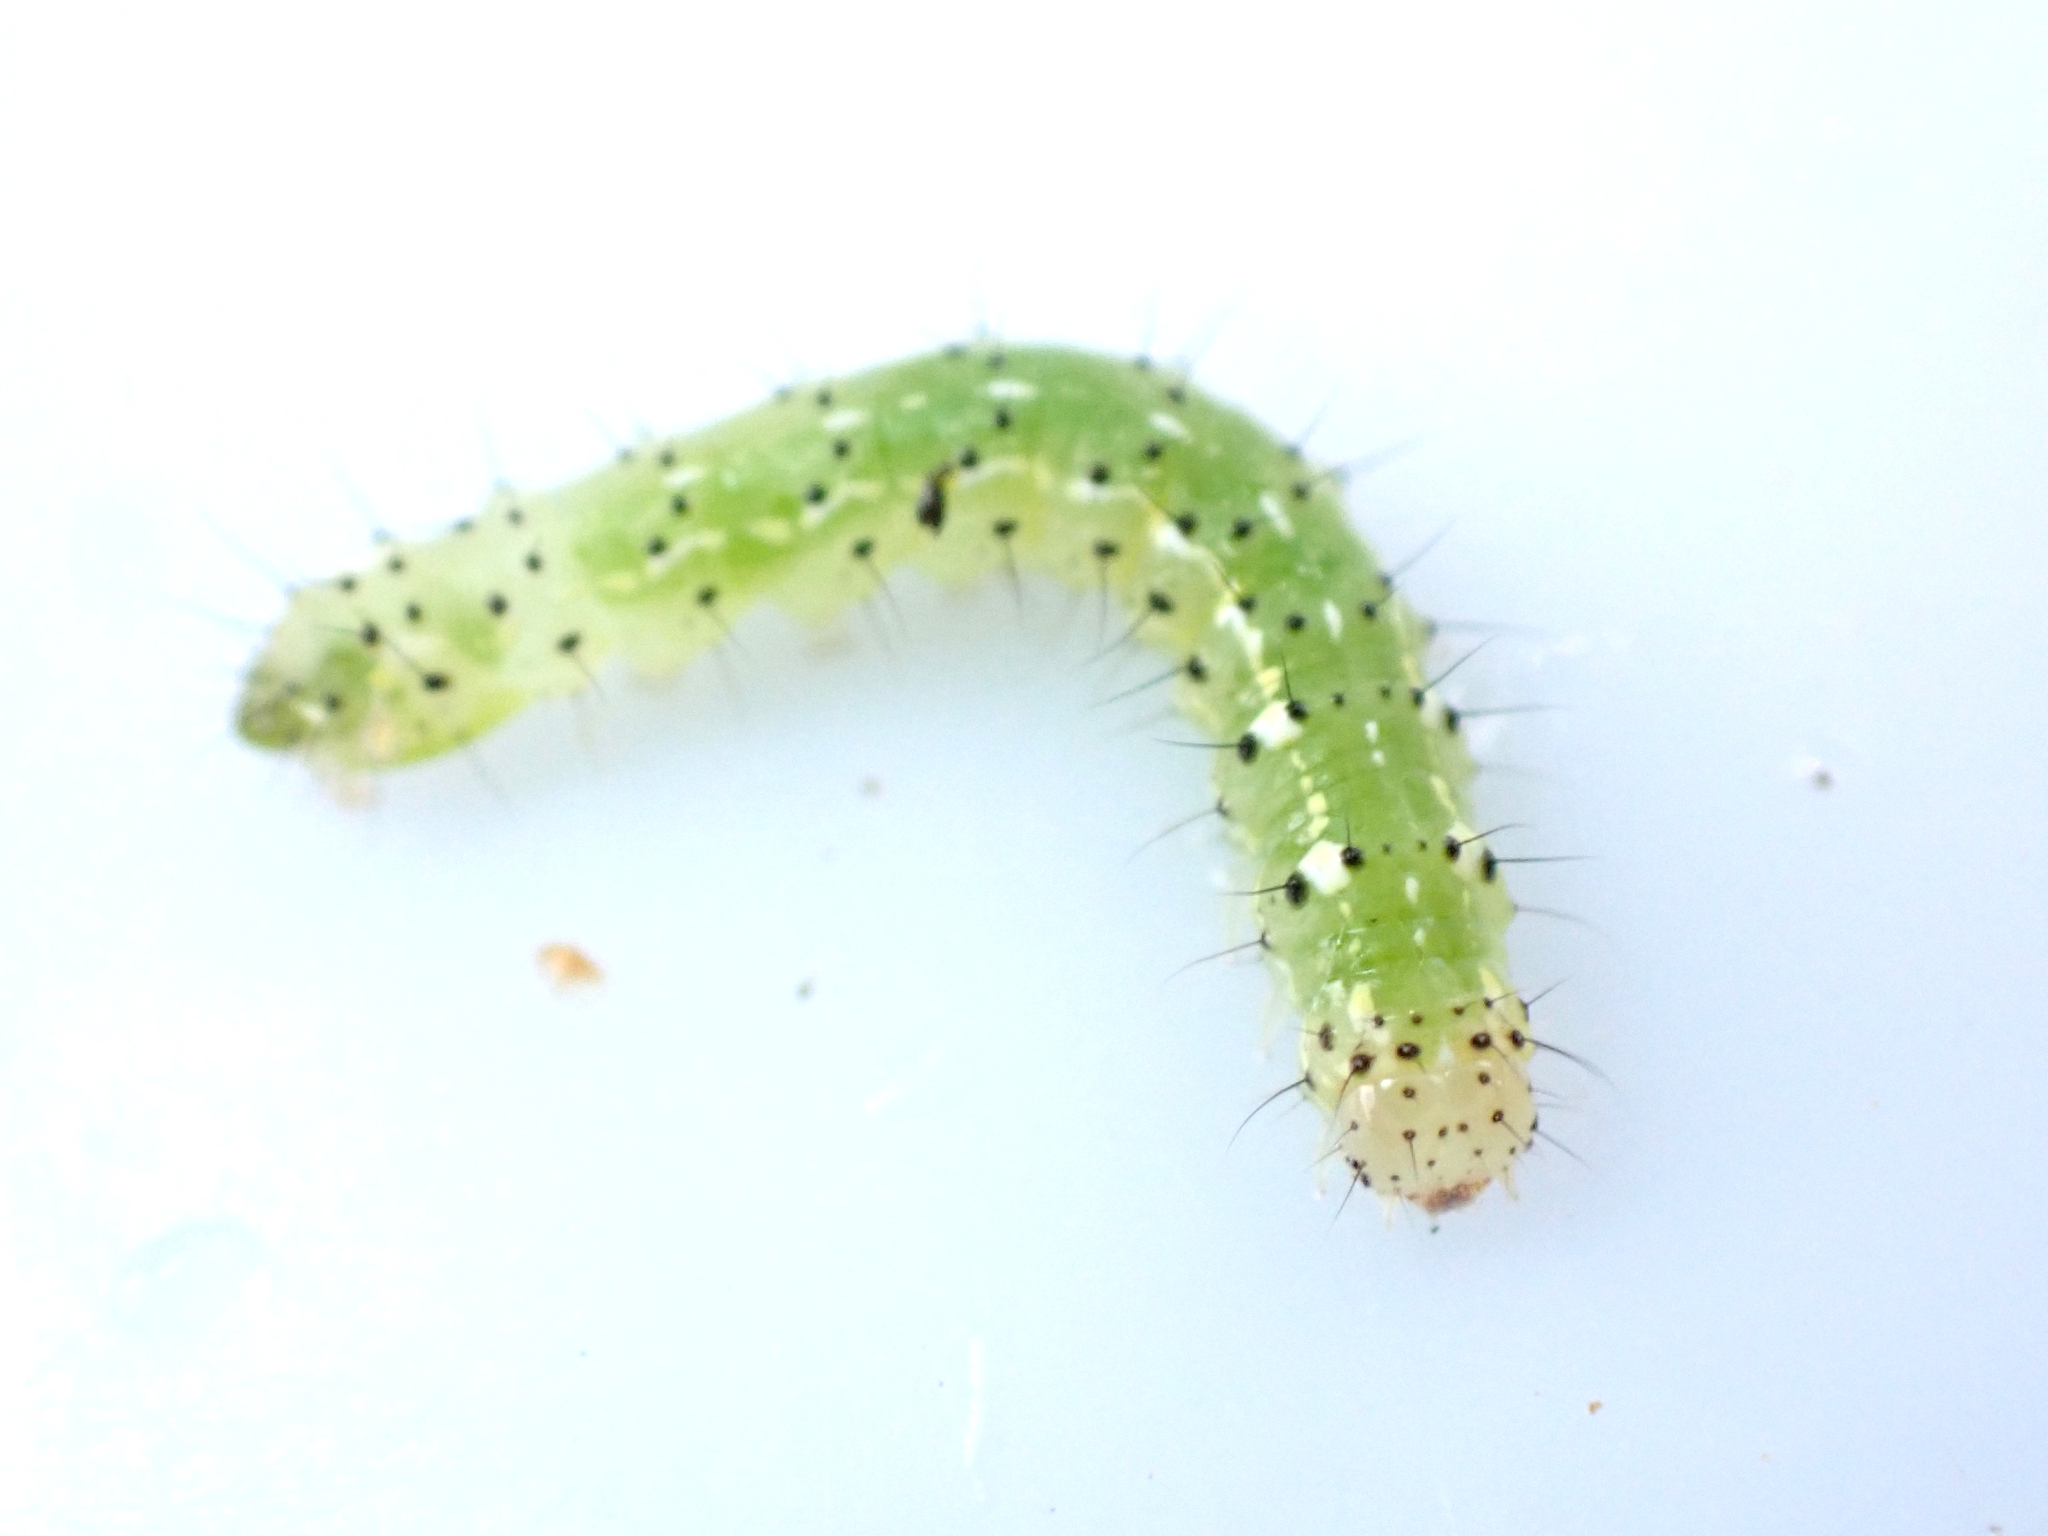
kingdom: Animalia
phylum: Arthropoda
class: Insecta
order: Lepidoptera
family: Noctuidae
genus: Feredayia
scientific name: Feredayia grammosa
